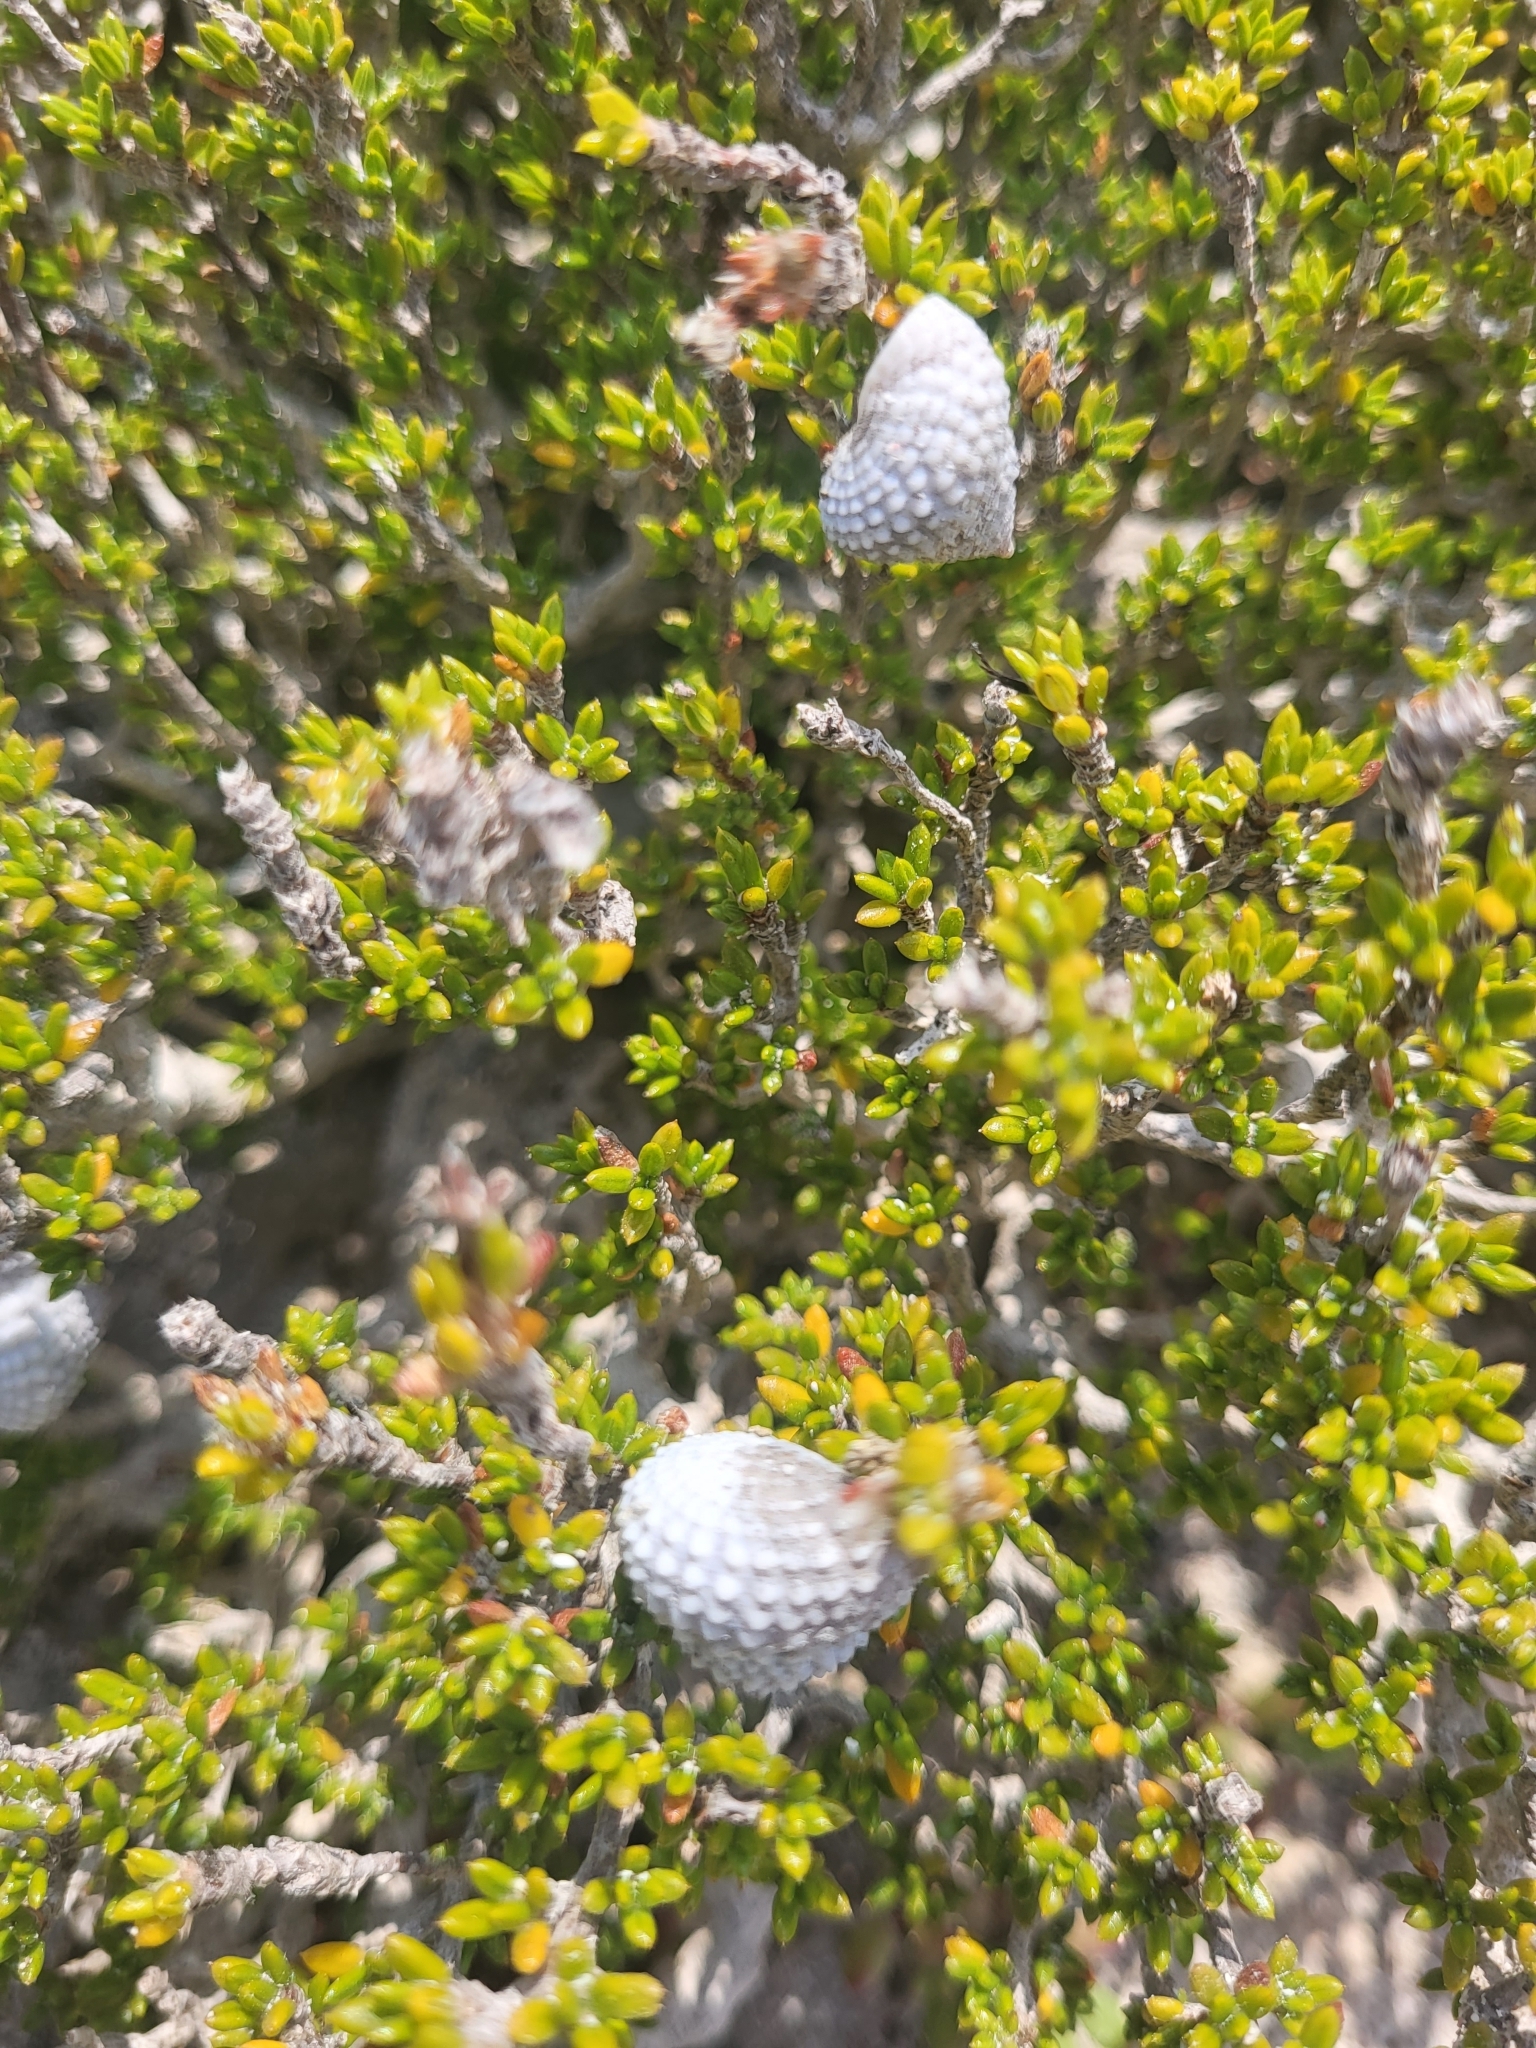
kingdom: Animalia
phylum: Mollusca
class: Gastropoda
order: Littorinimorpha
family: Littorinidae
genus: Cenchritis
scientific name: Cenchritis muricatus
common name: Beaded periwinkle
